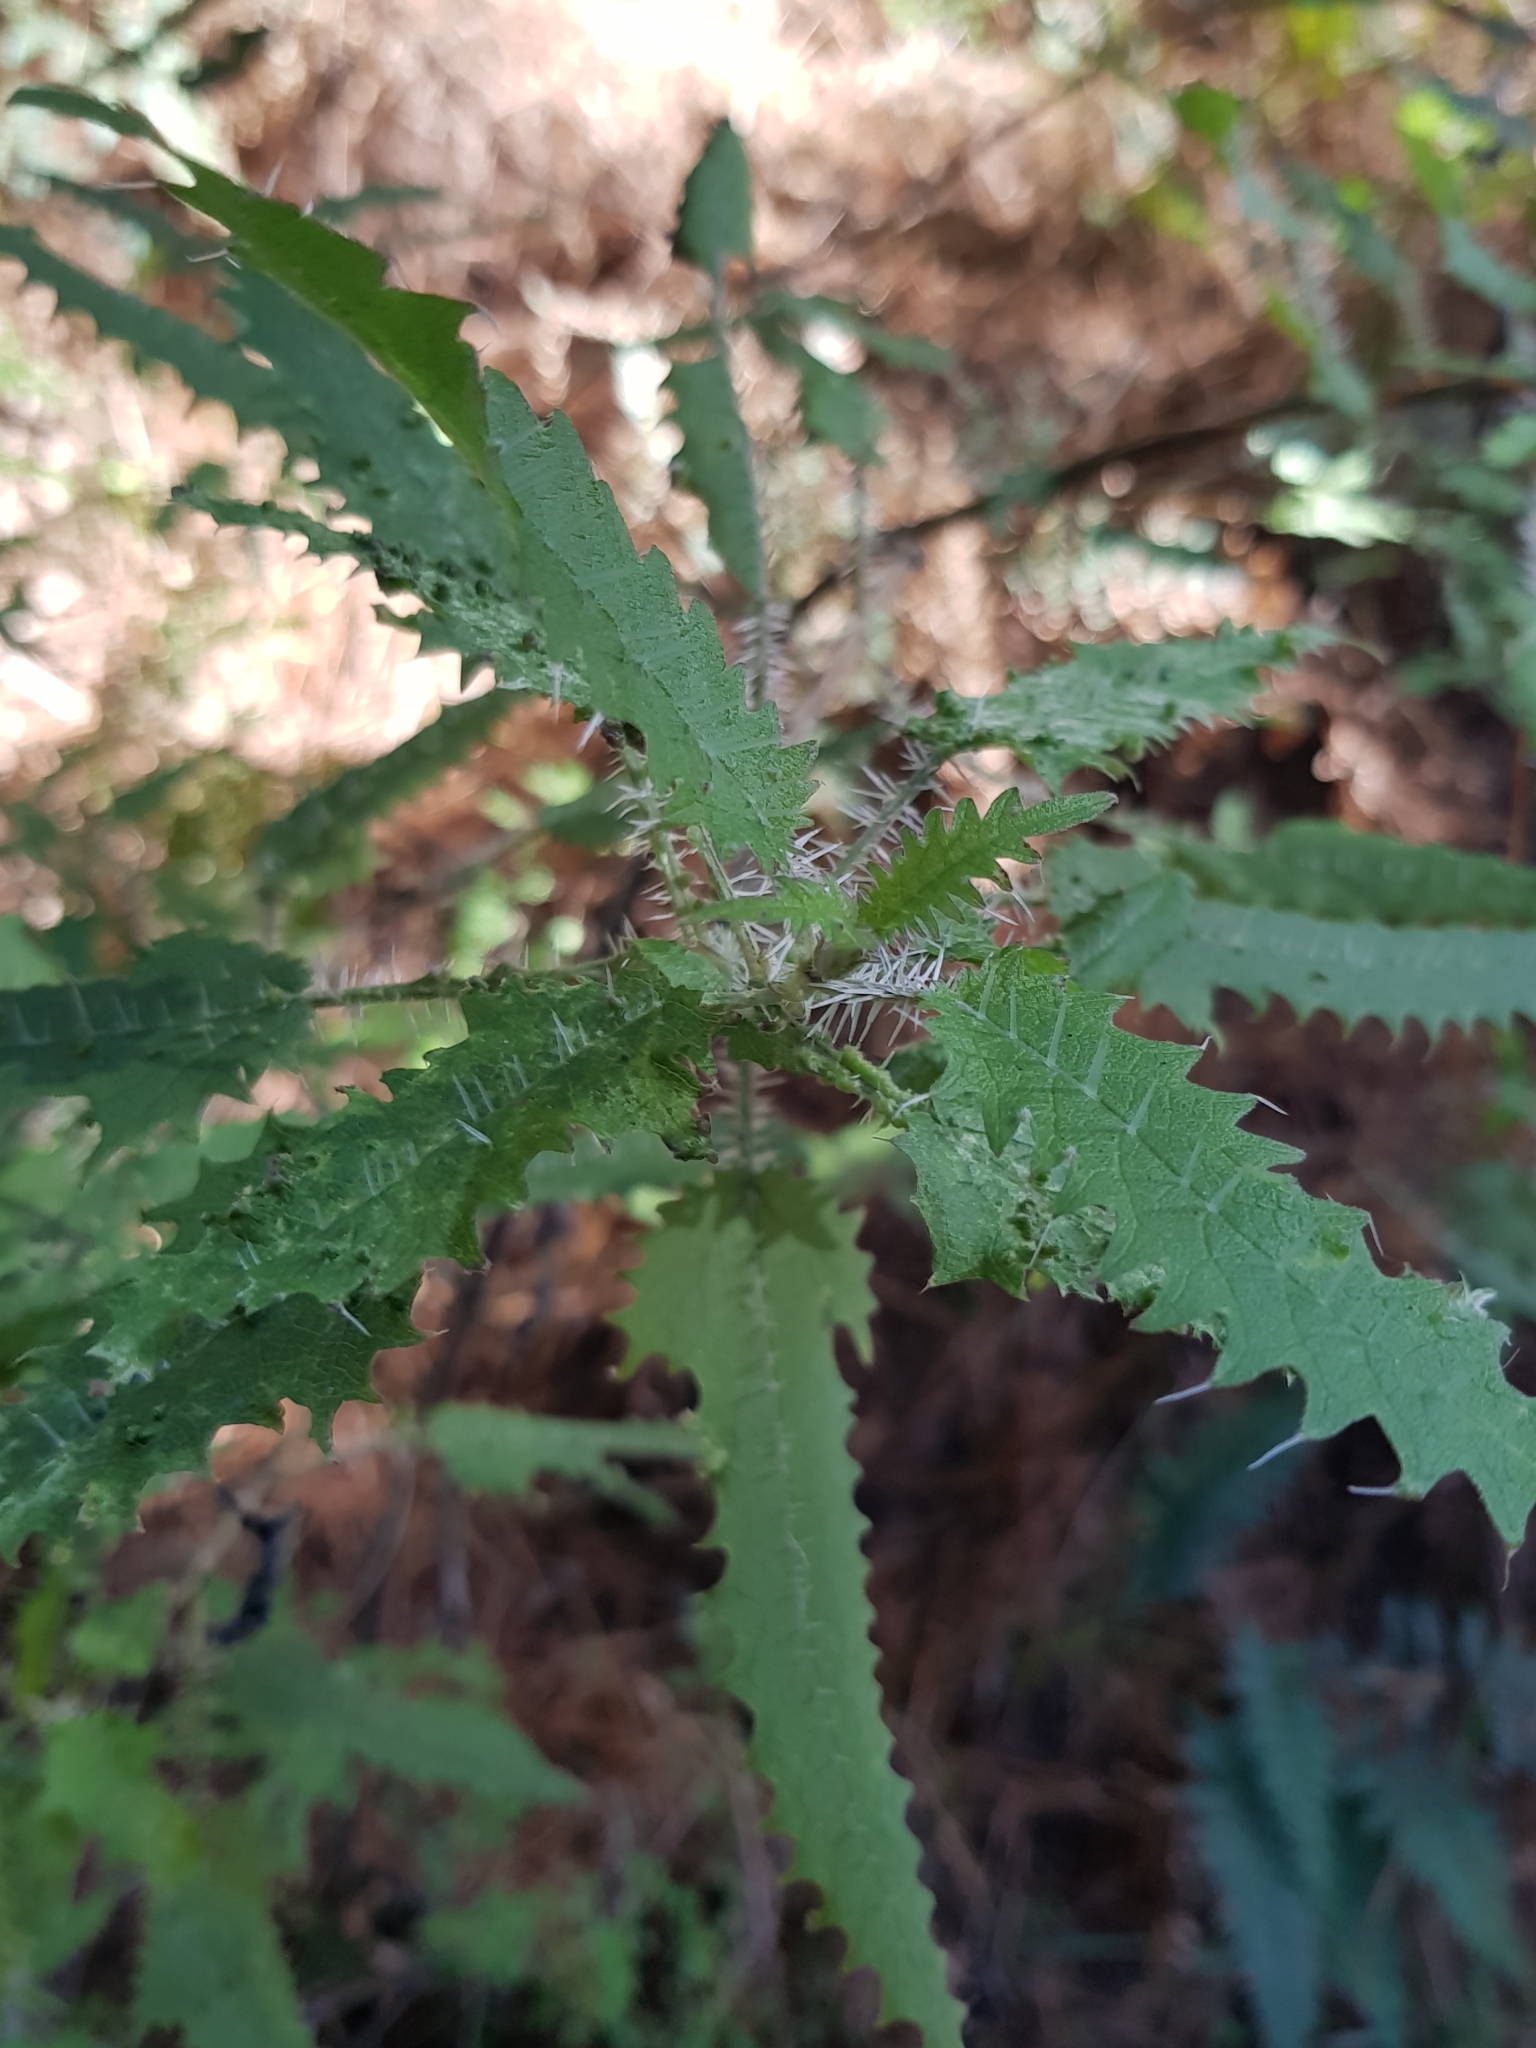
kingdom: Plantae
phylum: Tracheophyta
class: Magnoliopsida
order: Rosales
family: Urticaceae
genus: Urtica
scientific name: Urtica ferox
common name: Tree nettle
